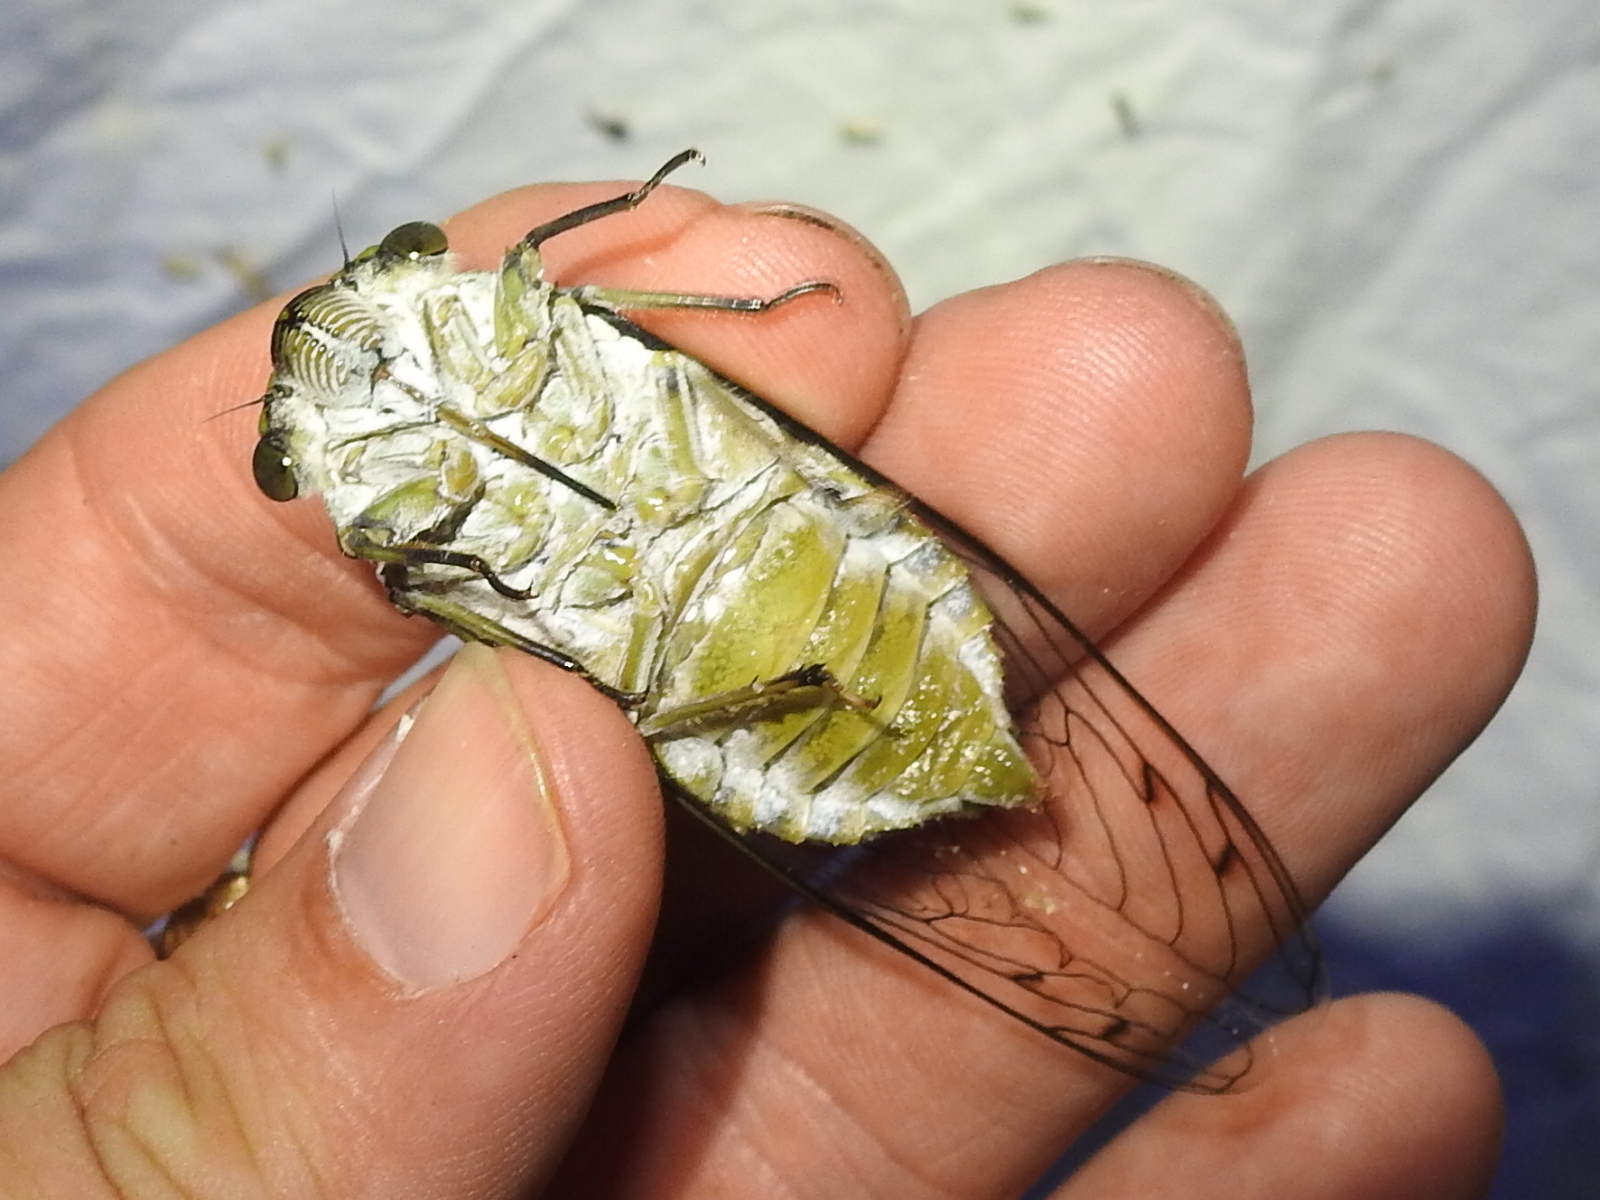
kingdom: Animalia
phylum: Arthropoda
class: Insecta
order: Hemiptera
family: Cicadidae
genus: Quesada
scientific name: Quesada gigas
